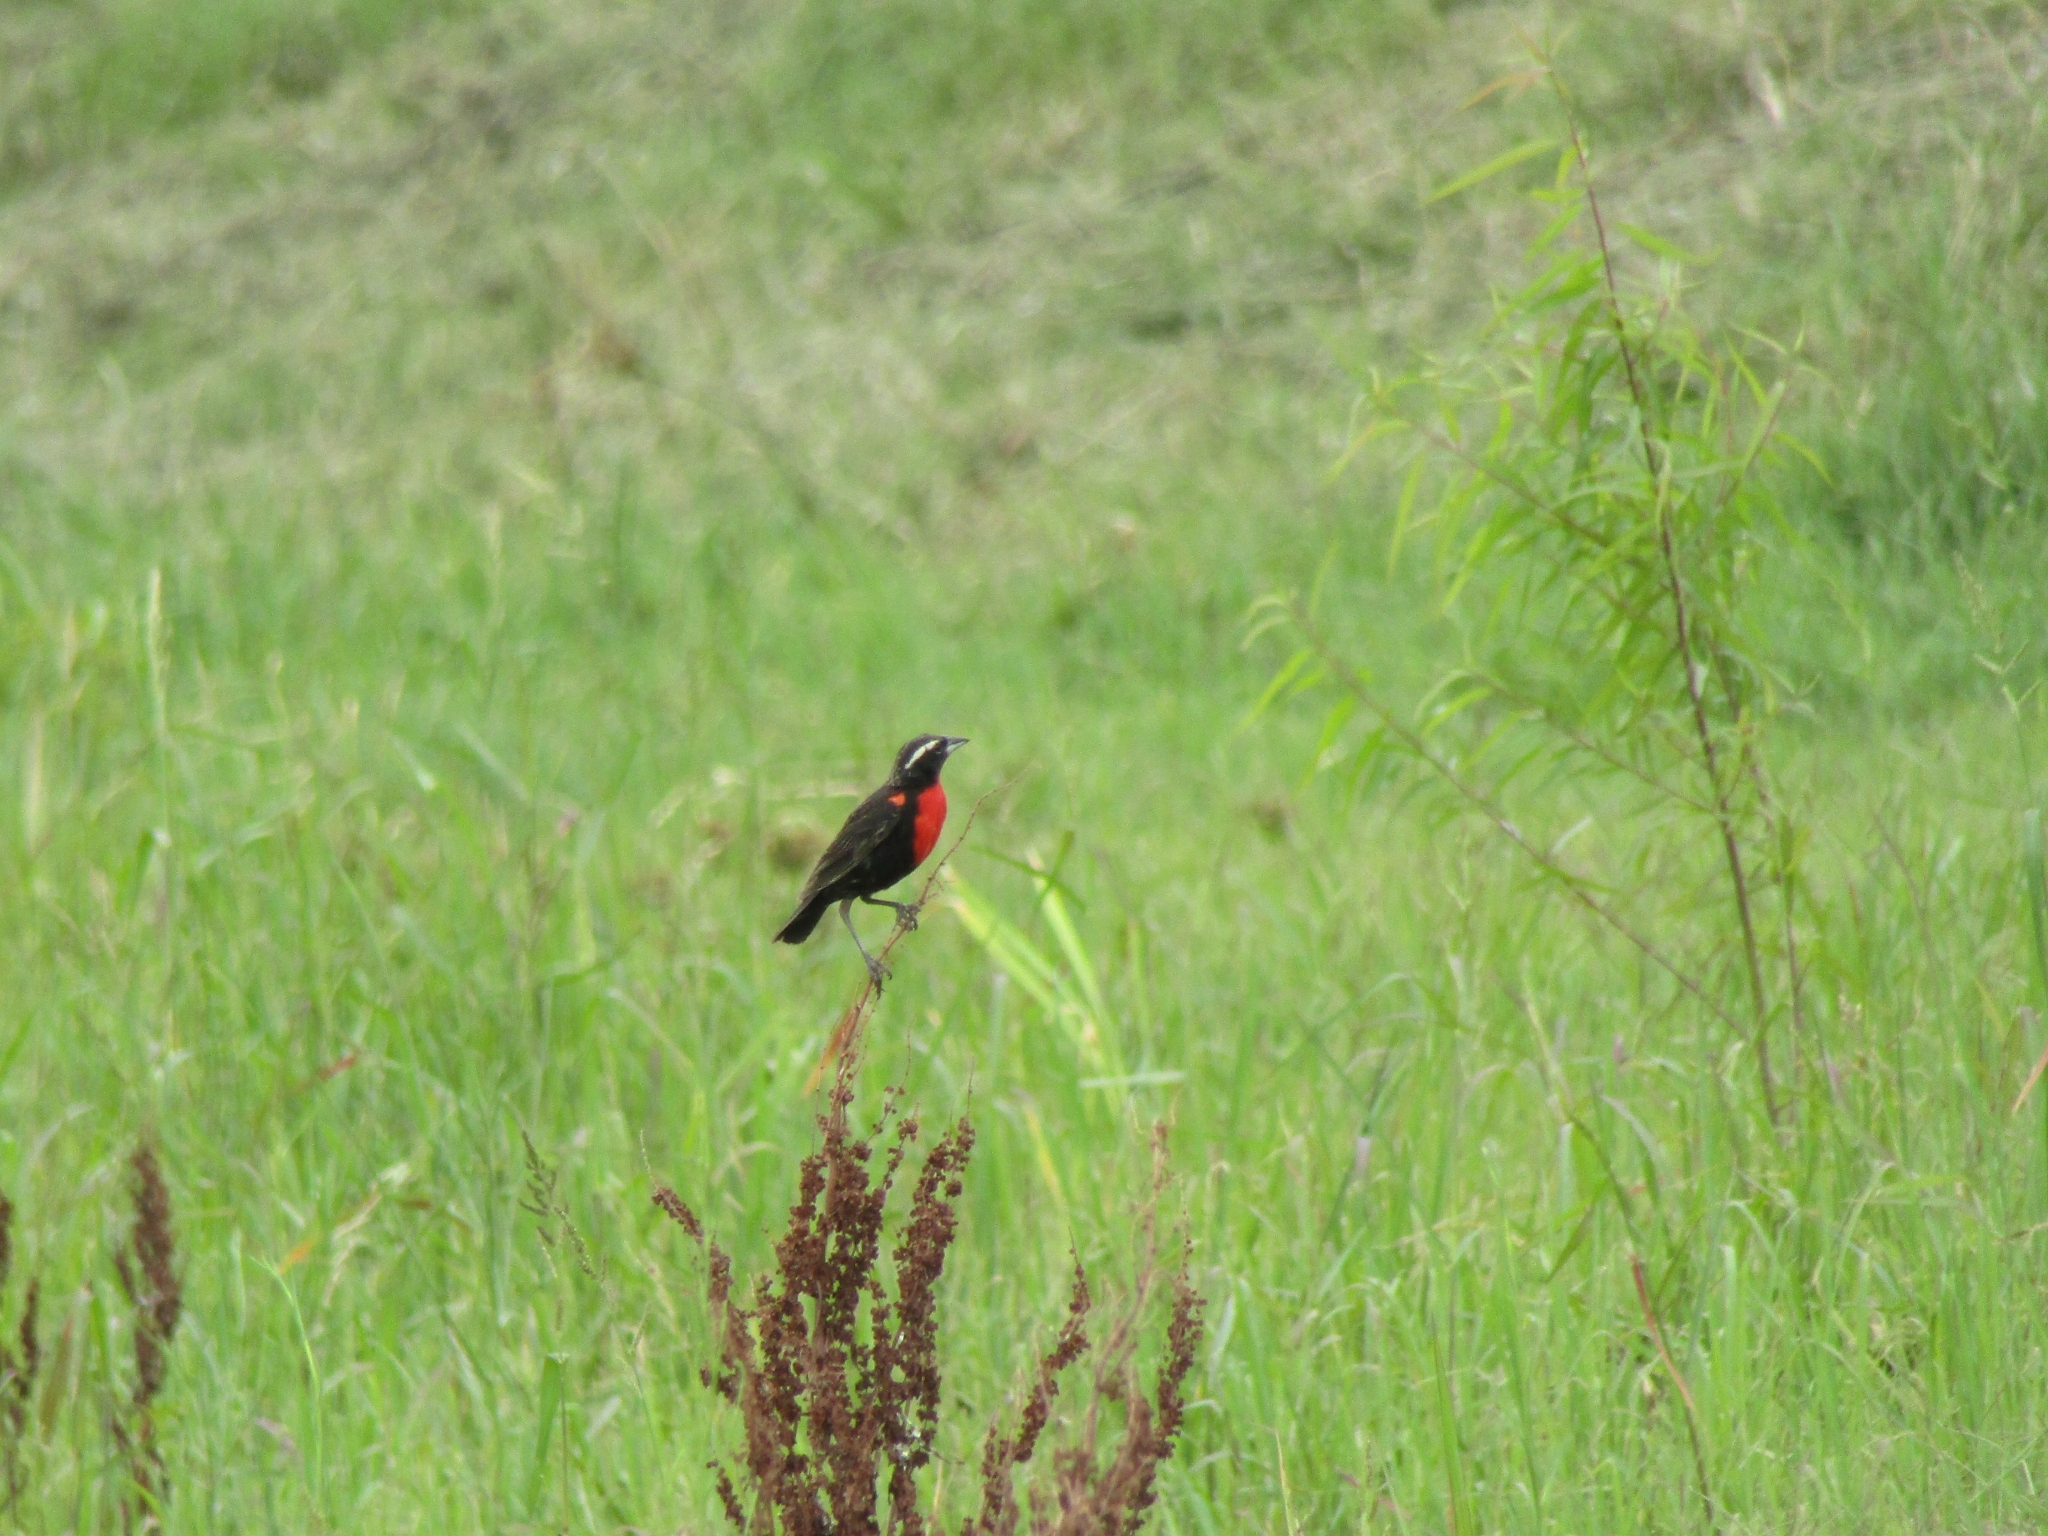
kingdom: Animalia
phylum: Chordata
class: Aves
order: Passeriformes
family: Icteridae
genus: Sturnella
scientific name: Sturnella superciliaris
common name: White-browed blackbird
